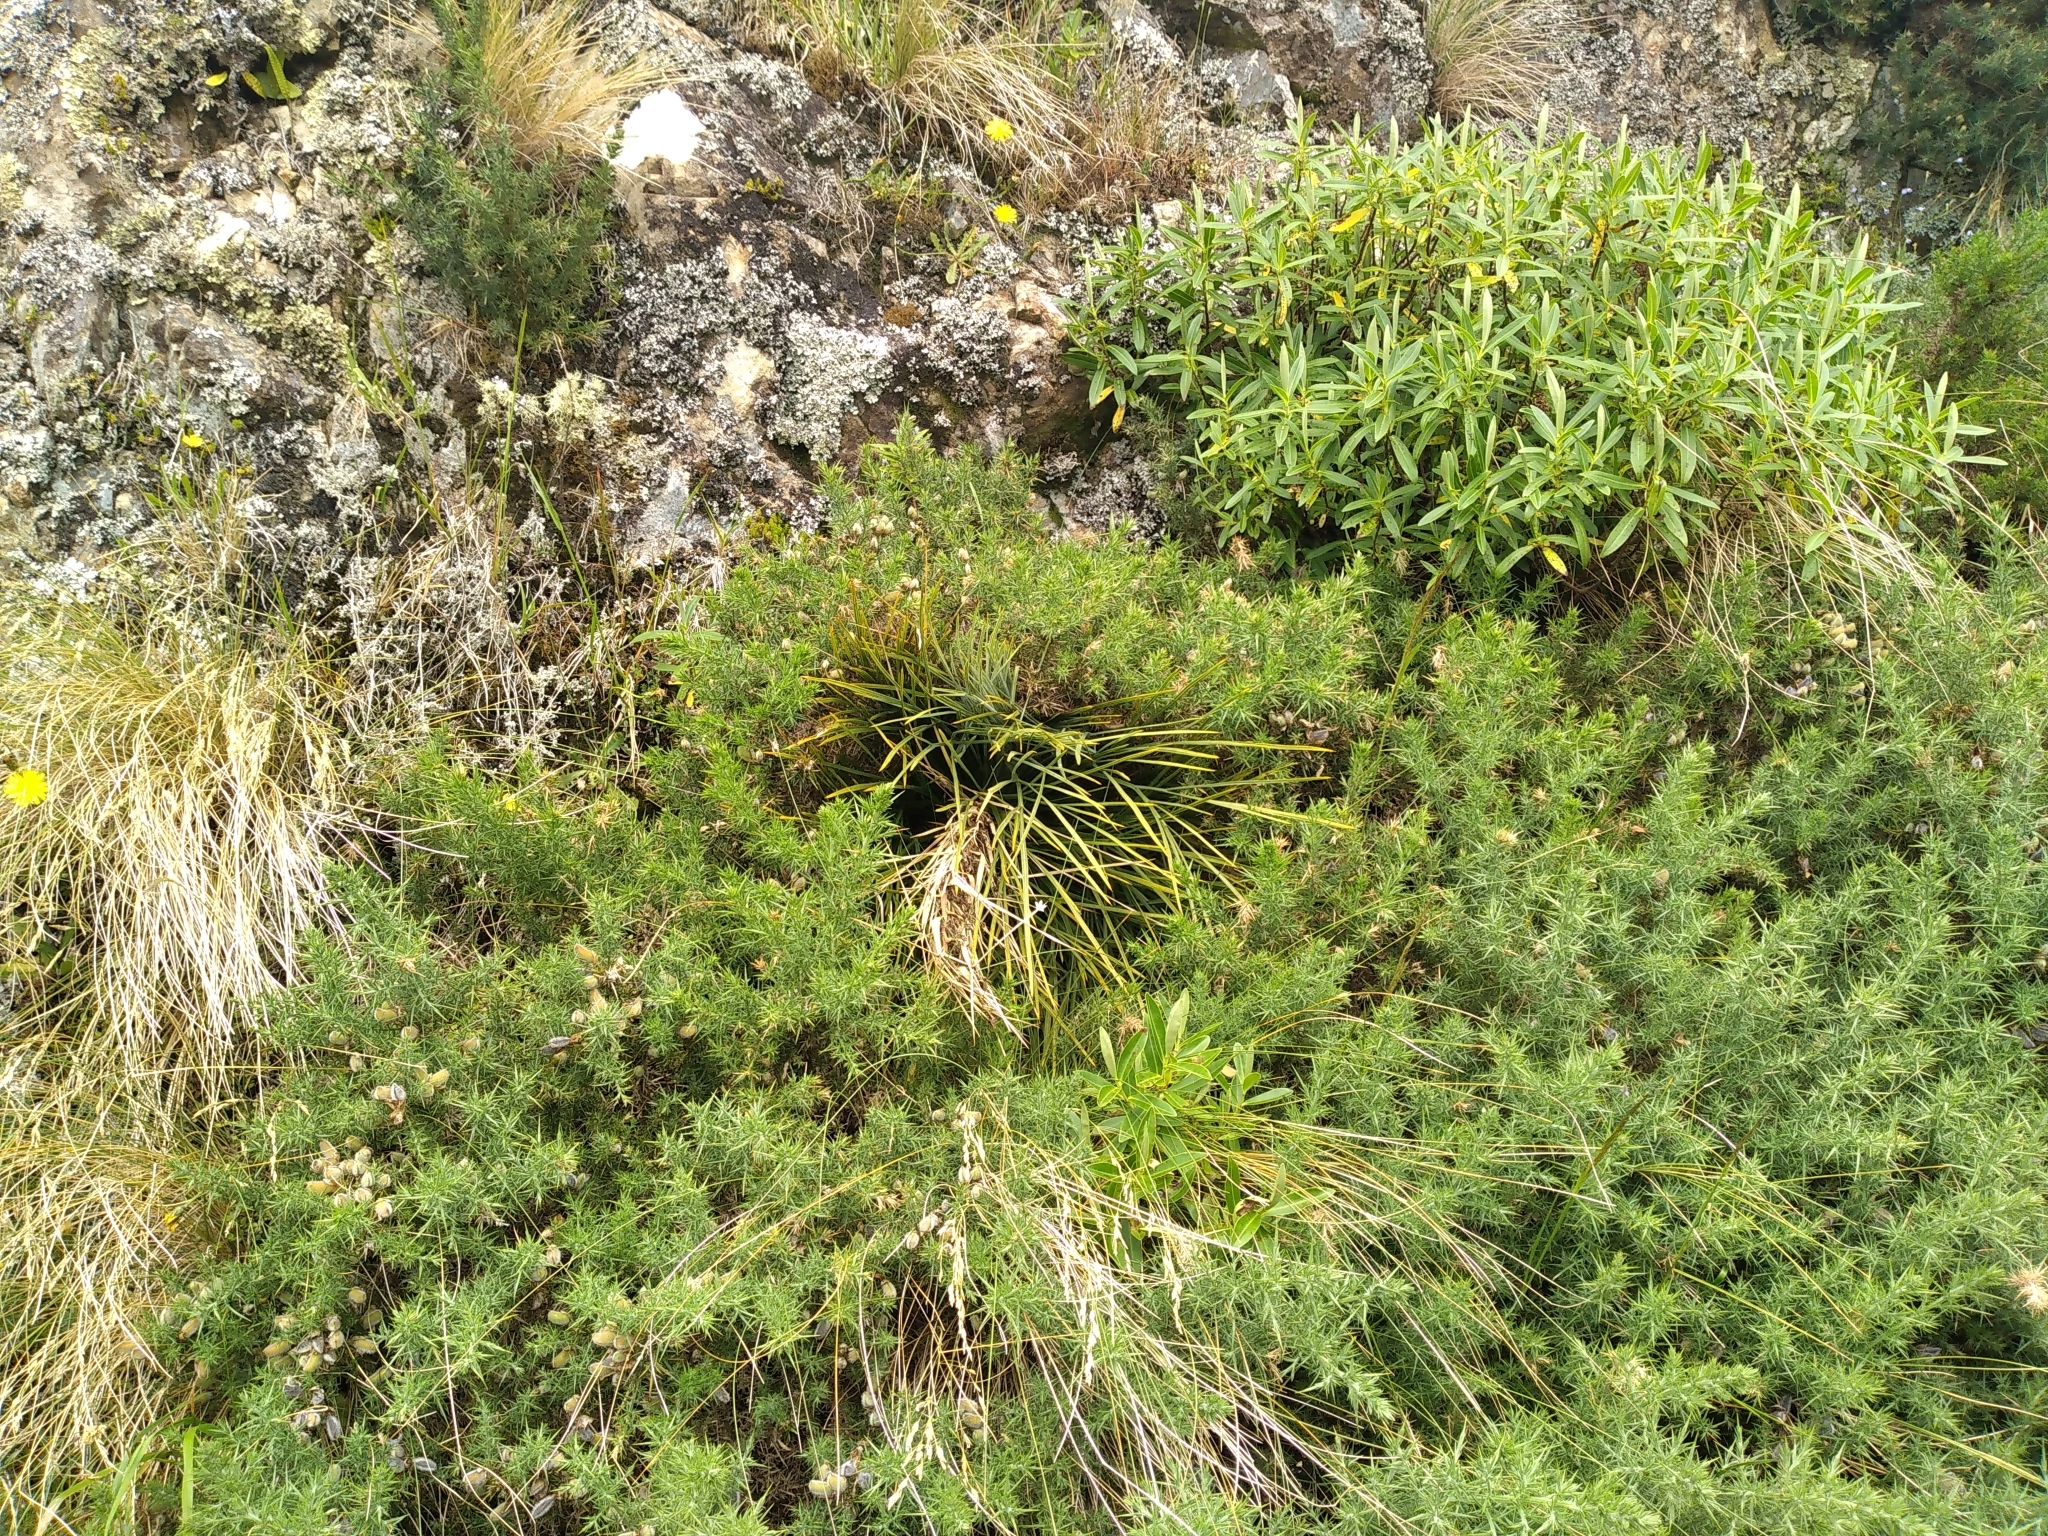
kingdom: Plantae
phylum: Tracheophyta
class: Magnoliopsida
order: Apiales
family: Apiaceae
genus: Aciphylla
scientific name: Aciphylla squarrosa
